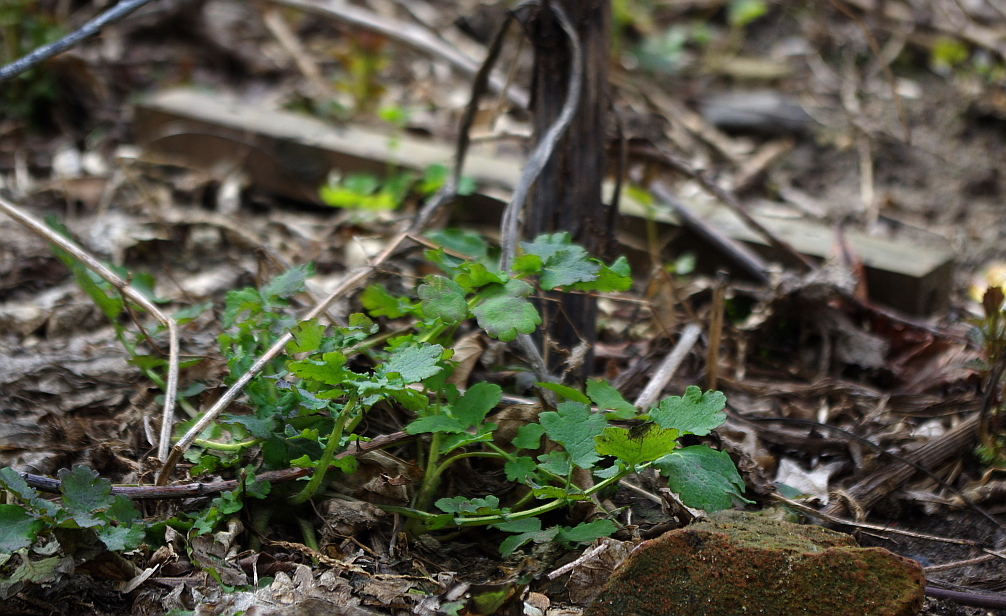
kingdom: Plantae
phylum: Tracheophyta
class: Magnoliopsida
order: Ranunculales
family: Papaveraceae
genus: Chelidonium
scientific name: Chelidonium majus
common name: Greater celandine
